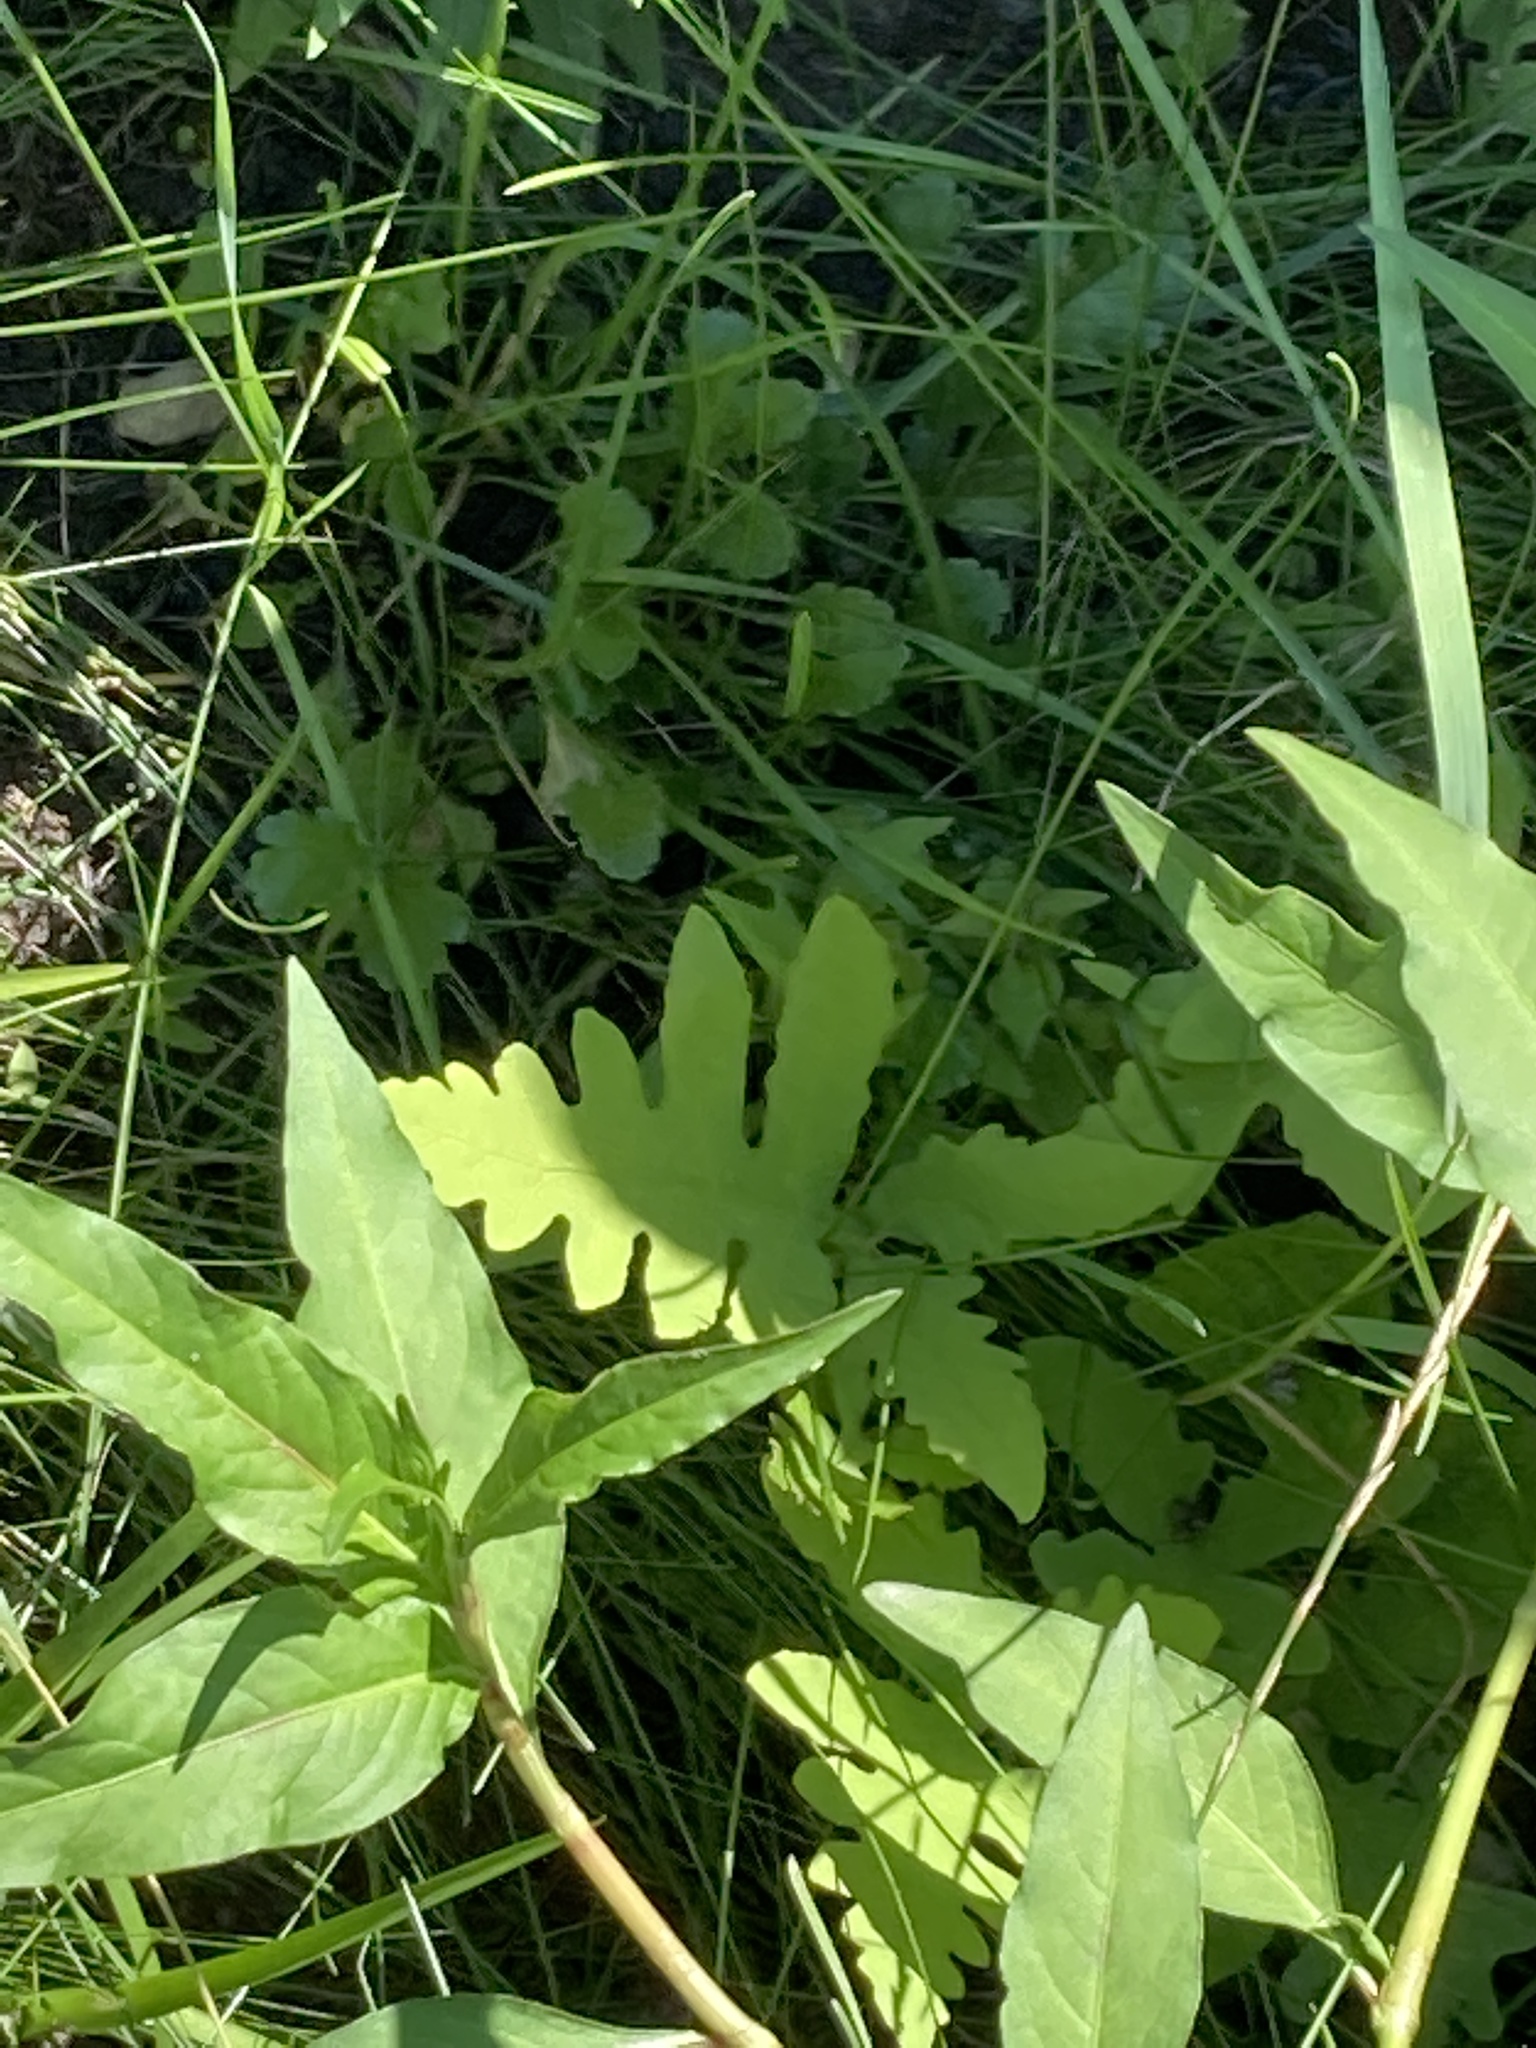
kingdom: Plantae
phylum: Tracheophyta
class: Polypodiopsida
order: Polypodiales
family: Onocleaceae
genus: Onoclea
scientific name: Onoclea sensibilis
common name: Sensitive fern
